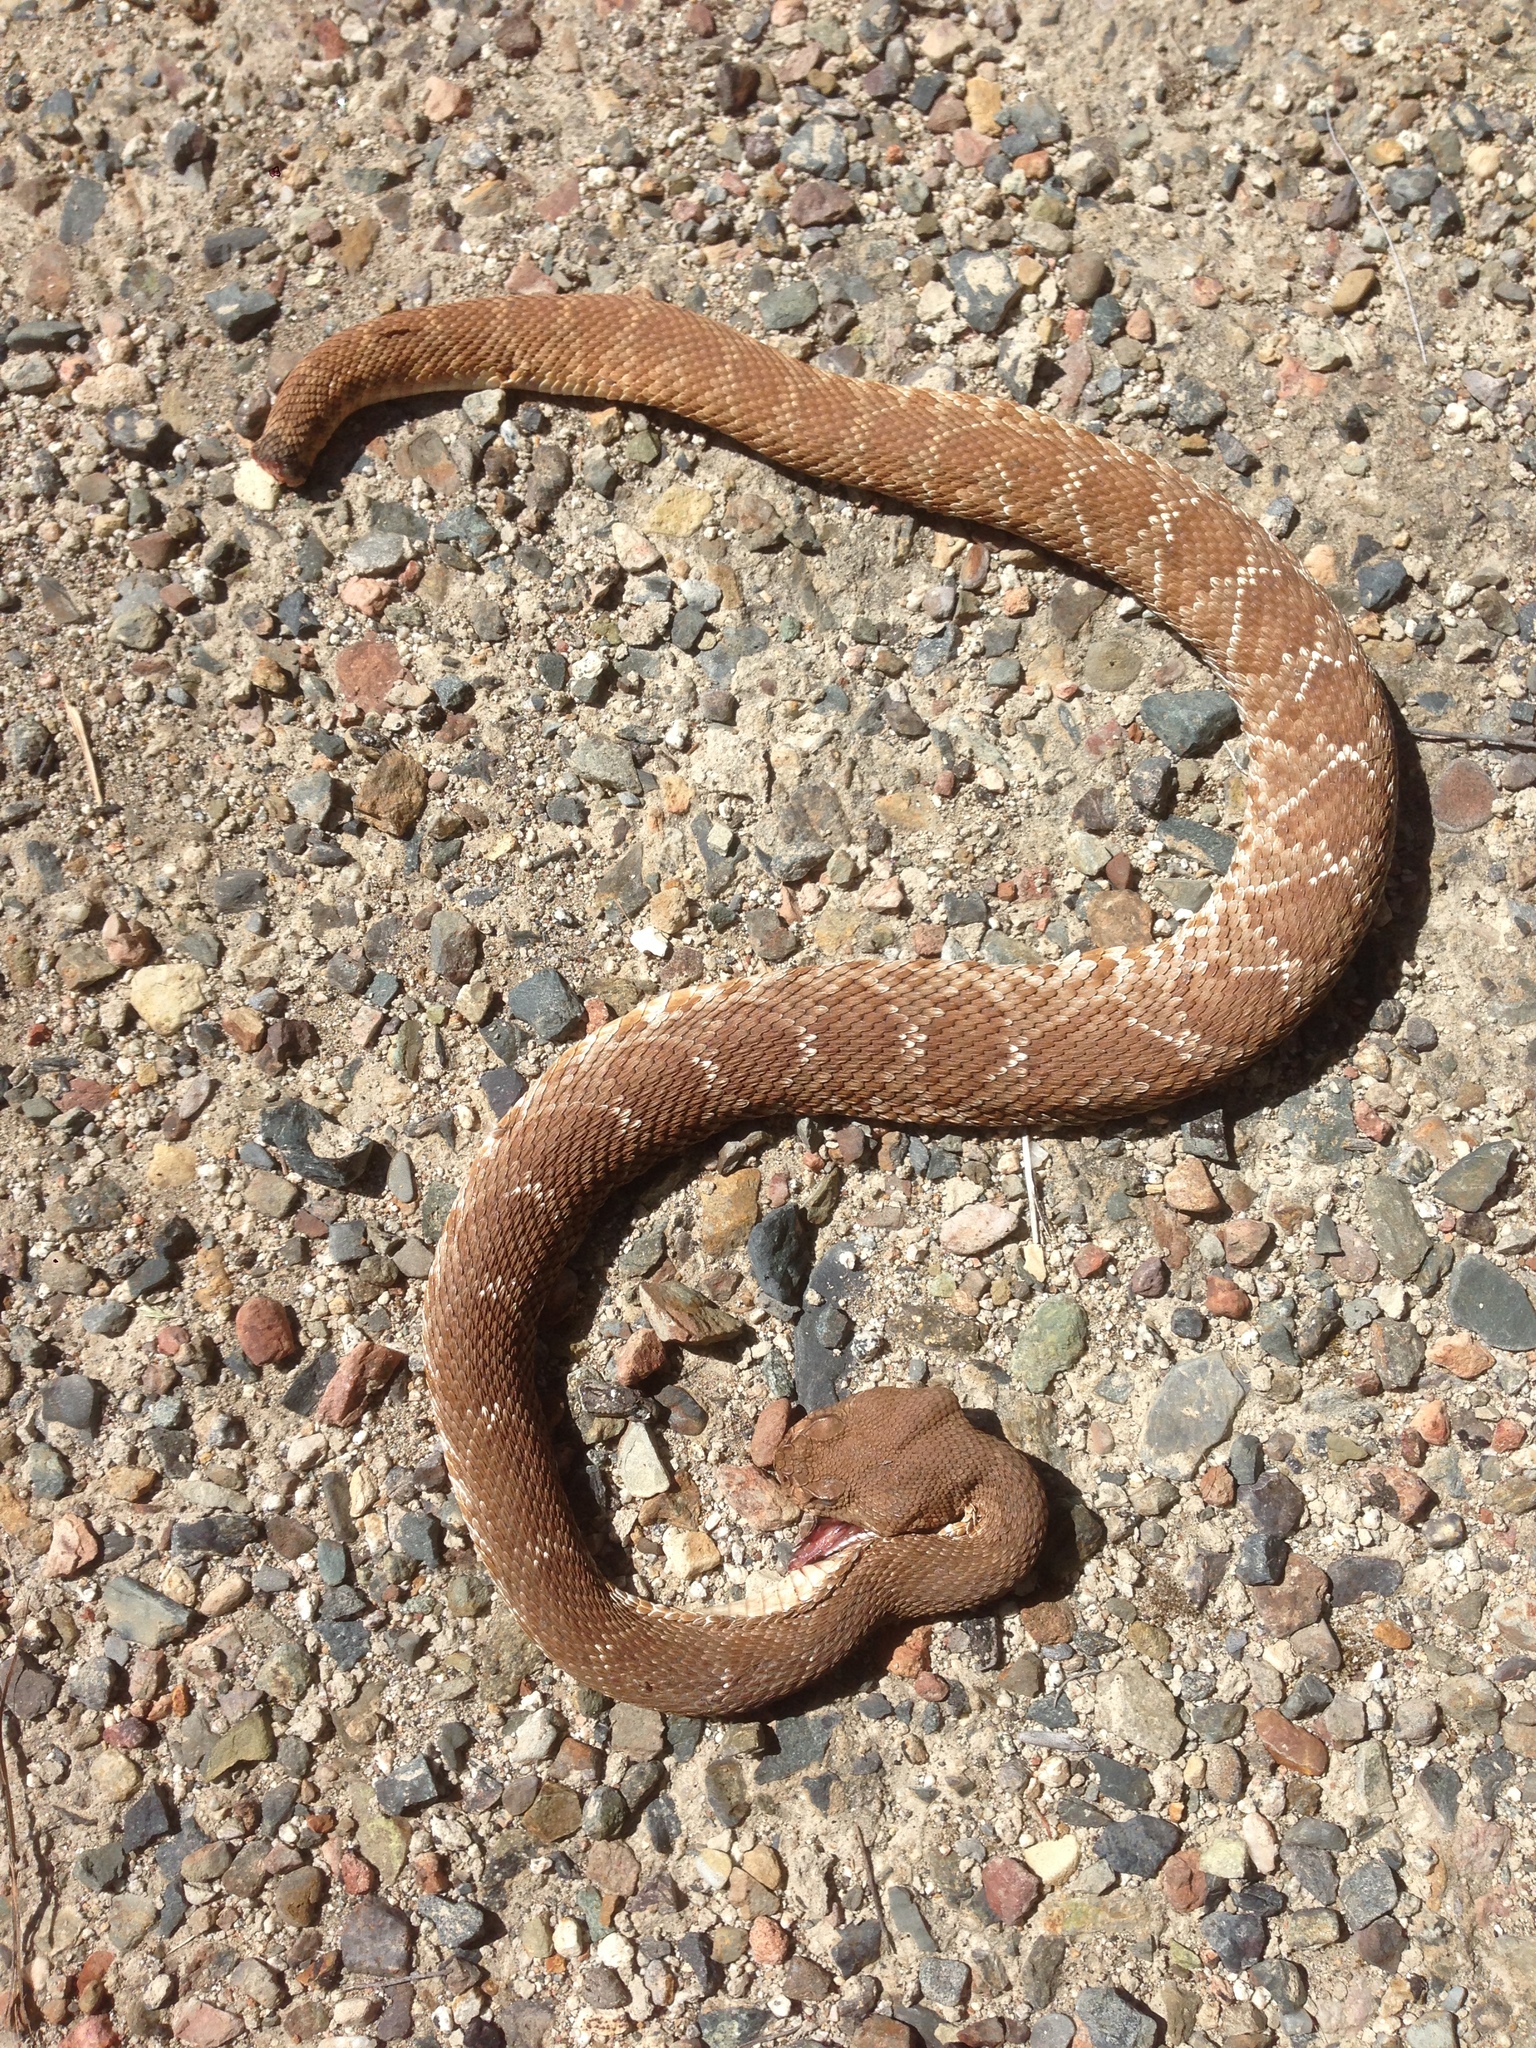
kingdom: Animalia
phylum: Chordata
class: Squamata
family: Viperidae
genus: Crotalus
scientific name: Crotalus ruber
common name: Red diamond rattlesnake
